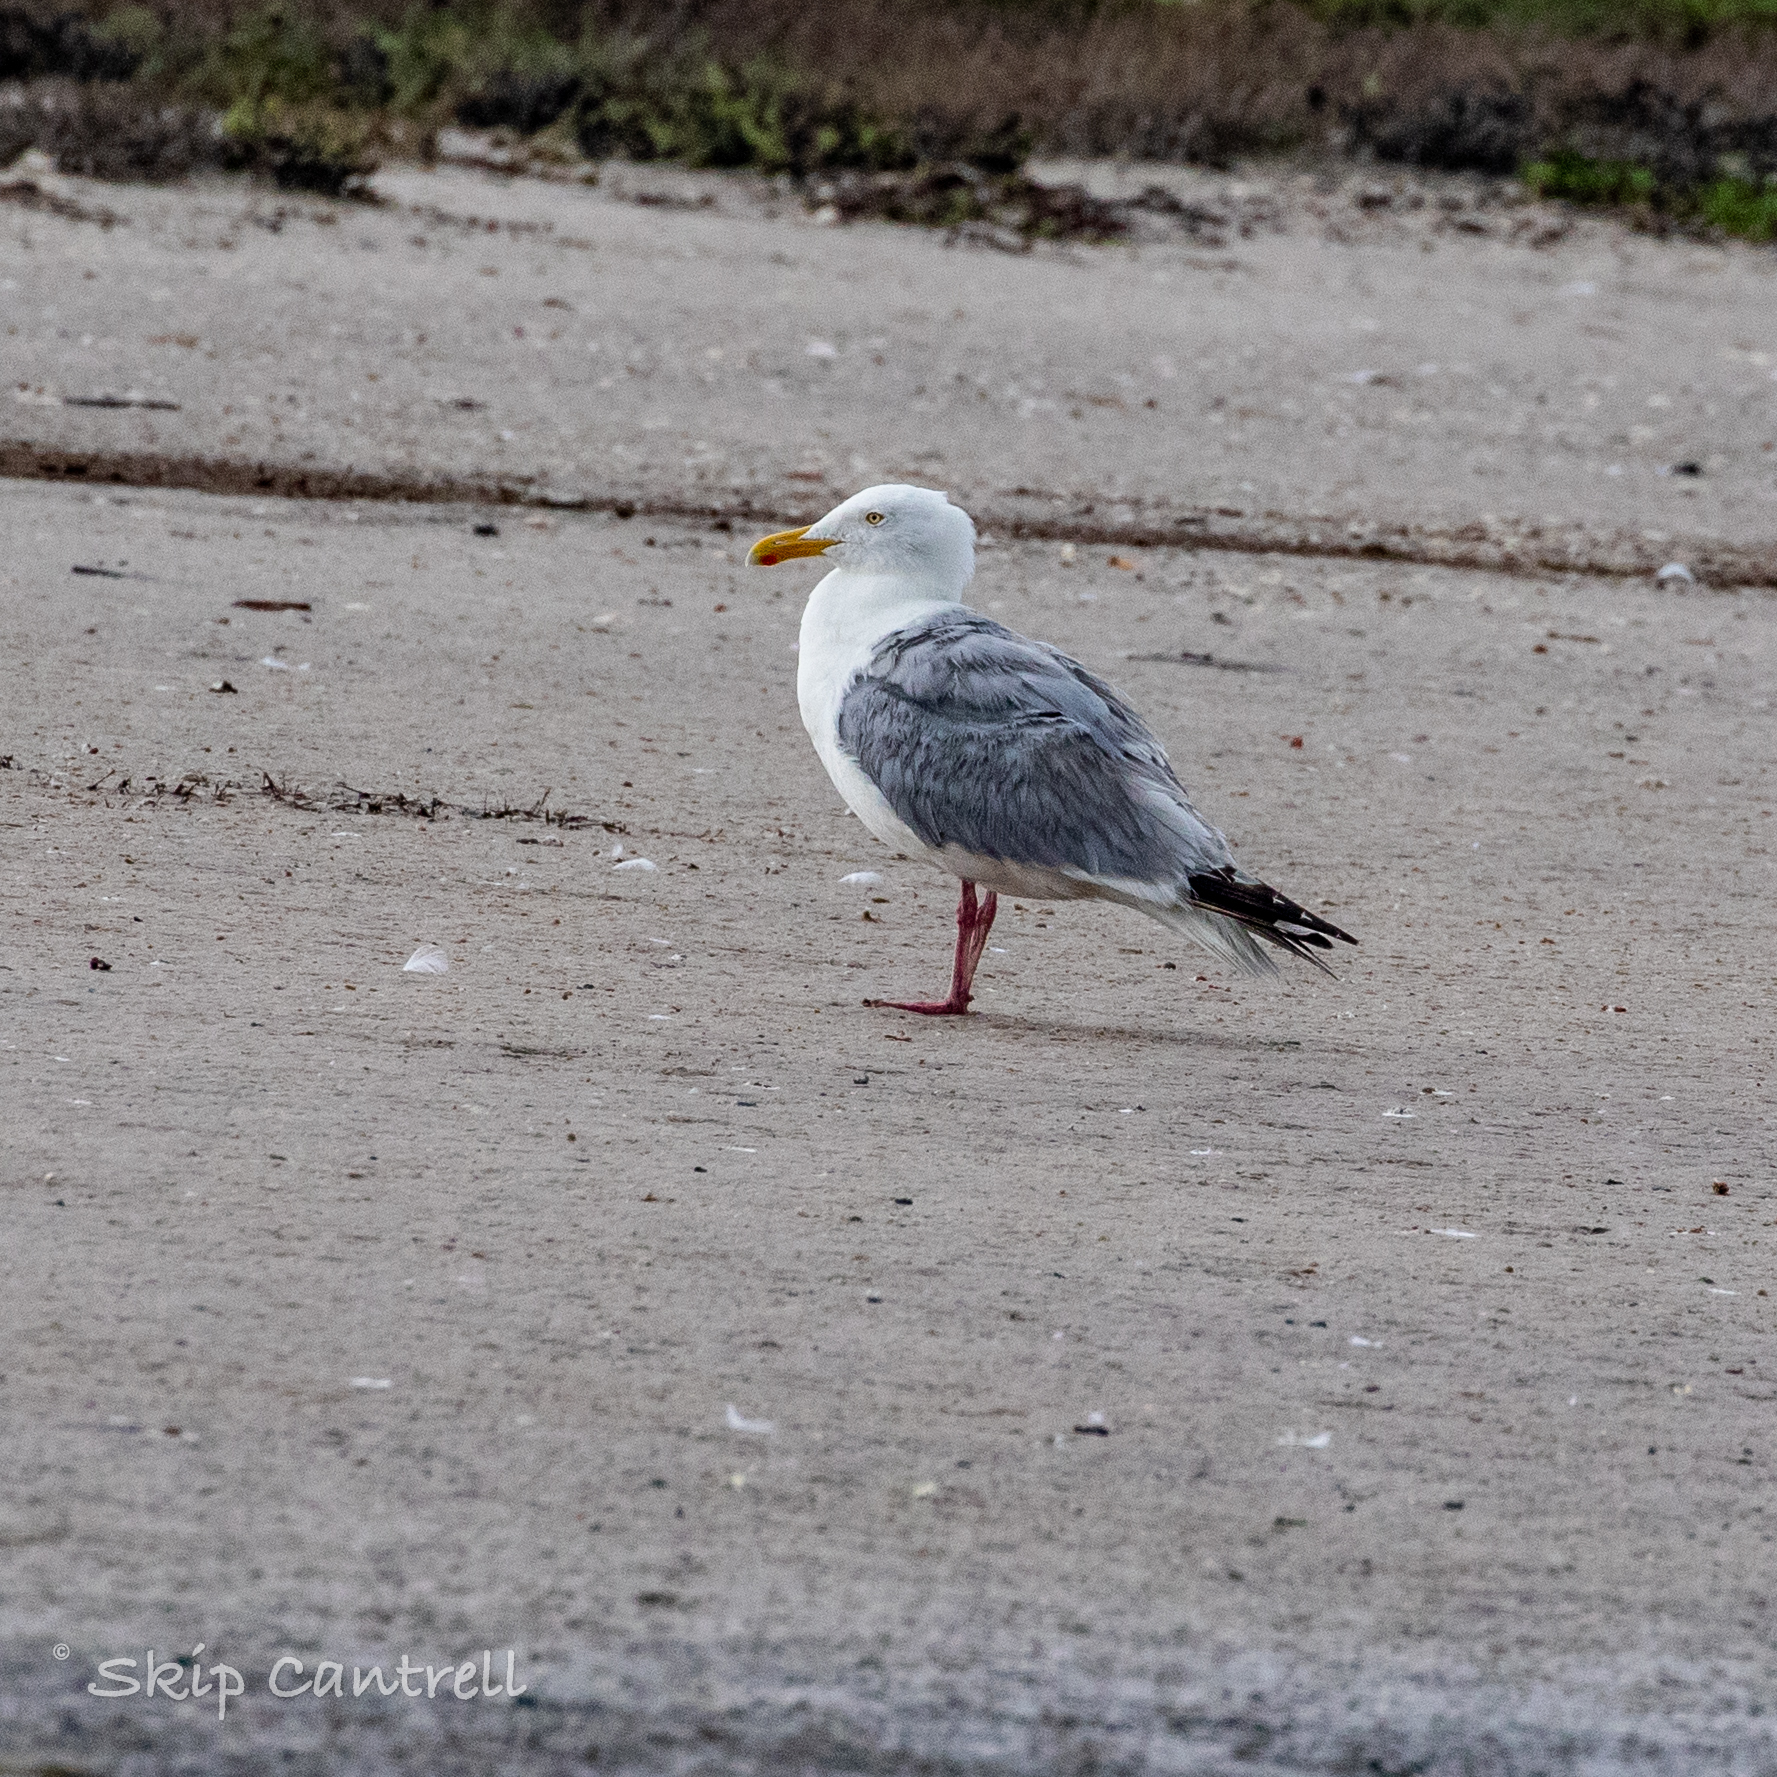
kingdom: Animalia
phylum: Chordata
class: Aves
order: Charadriiformes
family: Laridae
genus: Larus
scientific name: Larus argentatus
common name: Herring gull
